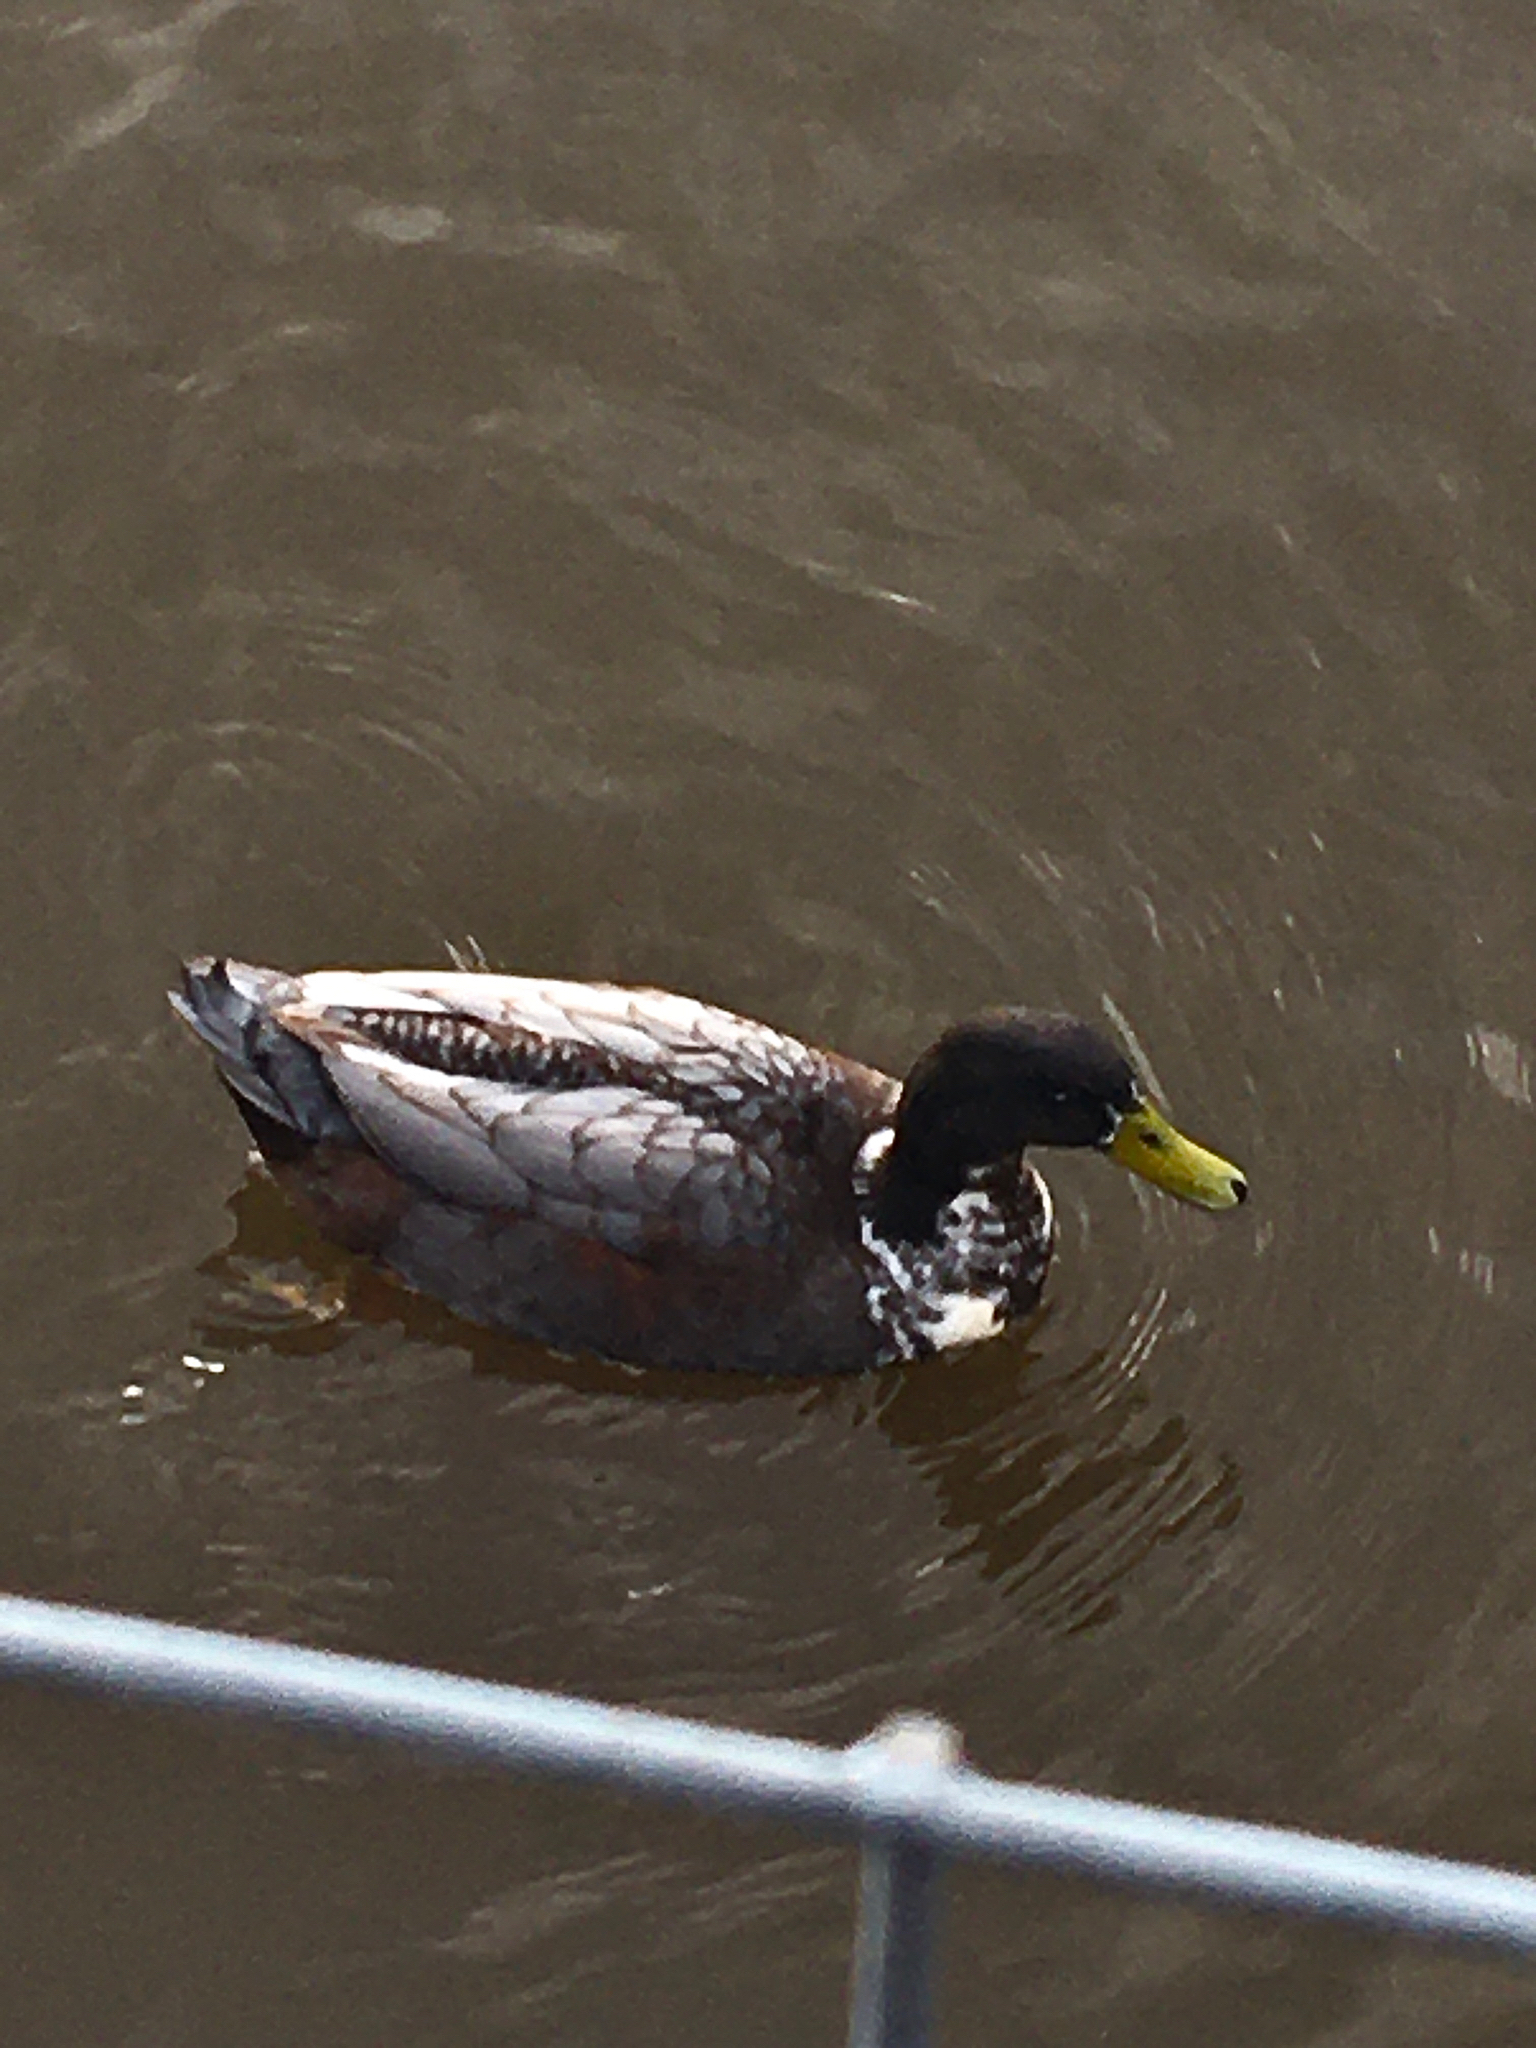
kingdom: Animalia
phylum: Chordata
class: Aves
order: Anseriformes
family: Anatidae
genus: Anas
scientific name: Anas platyrhynchos
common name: Mallard
